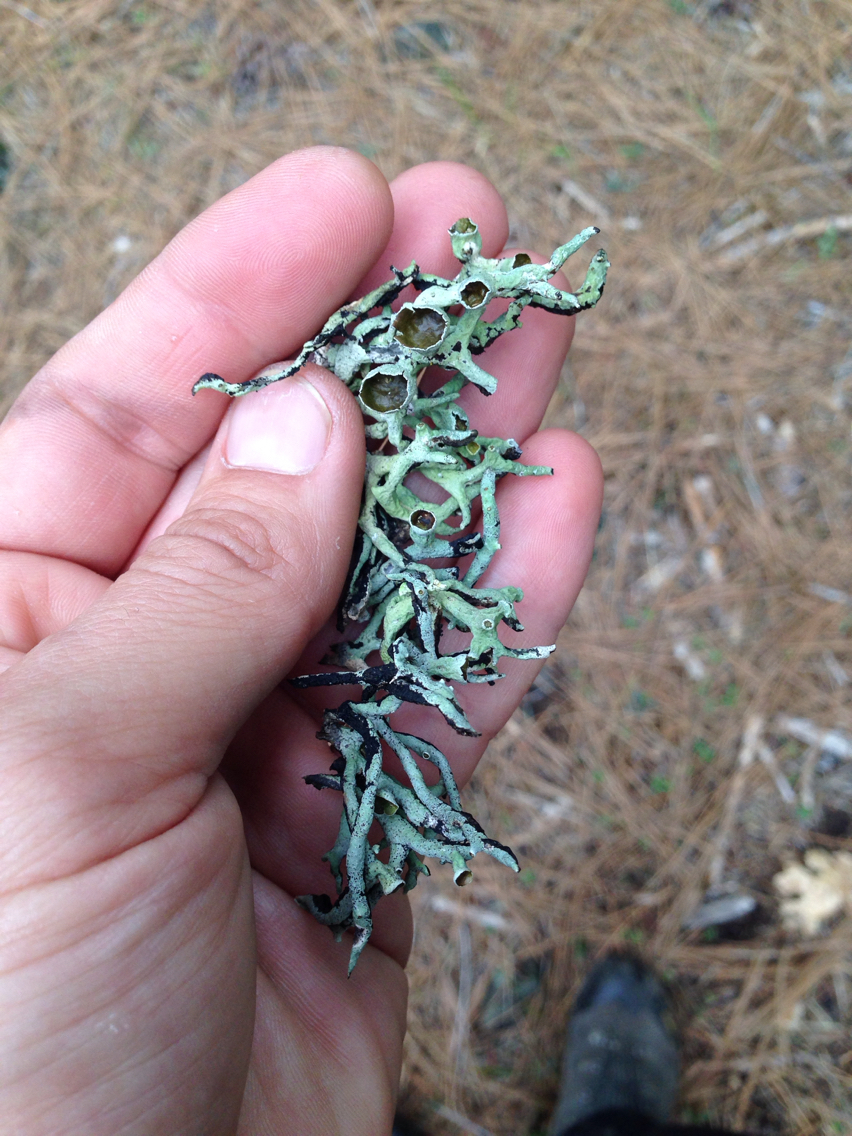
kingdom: Fungi
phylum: Ascomycota
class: Lecanoromycetes
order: Lecanorales
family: Parmeliaceae
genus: Hypogymnia
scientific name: Hypogymnia imshaugii
